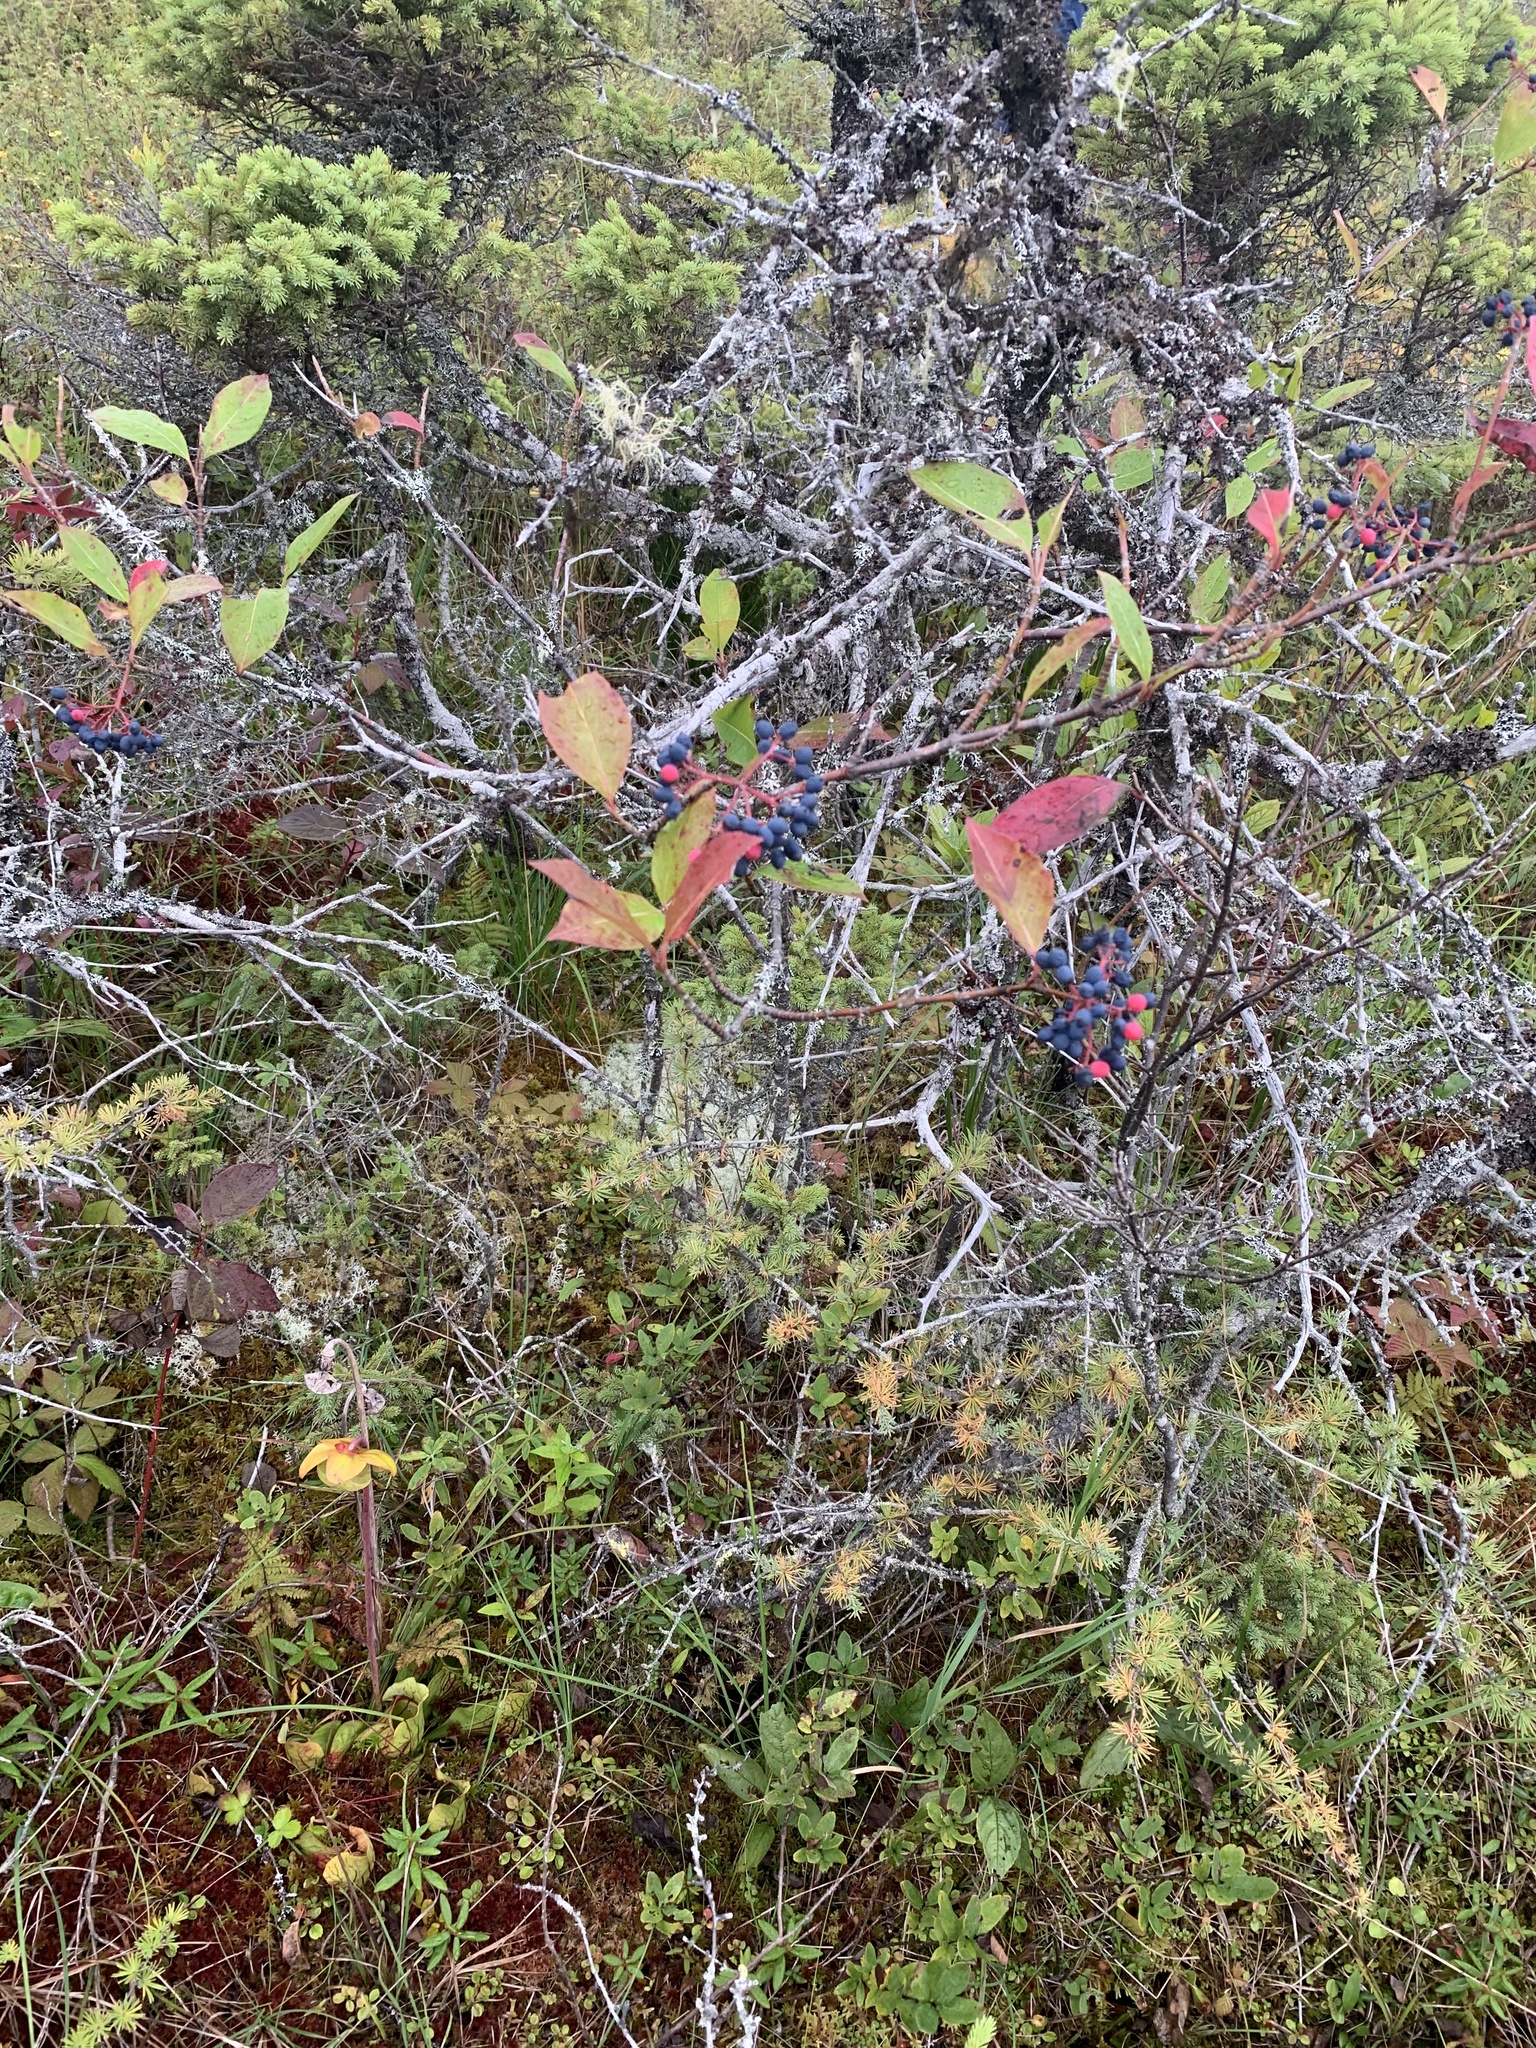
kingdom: Plantae
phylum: Tracheophyta
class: Magnoliopsida
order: Dipsacales
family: Viburnaceae
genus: Viburnum
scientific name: Viburnum cassinoides
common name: Swamp haw
